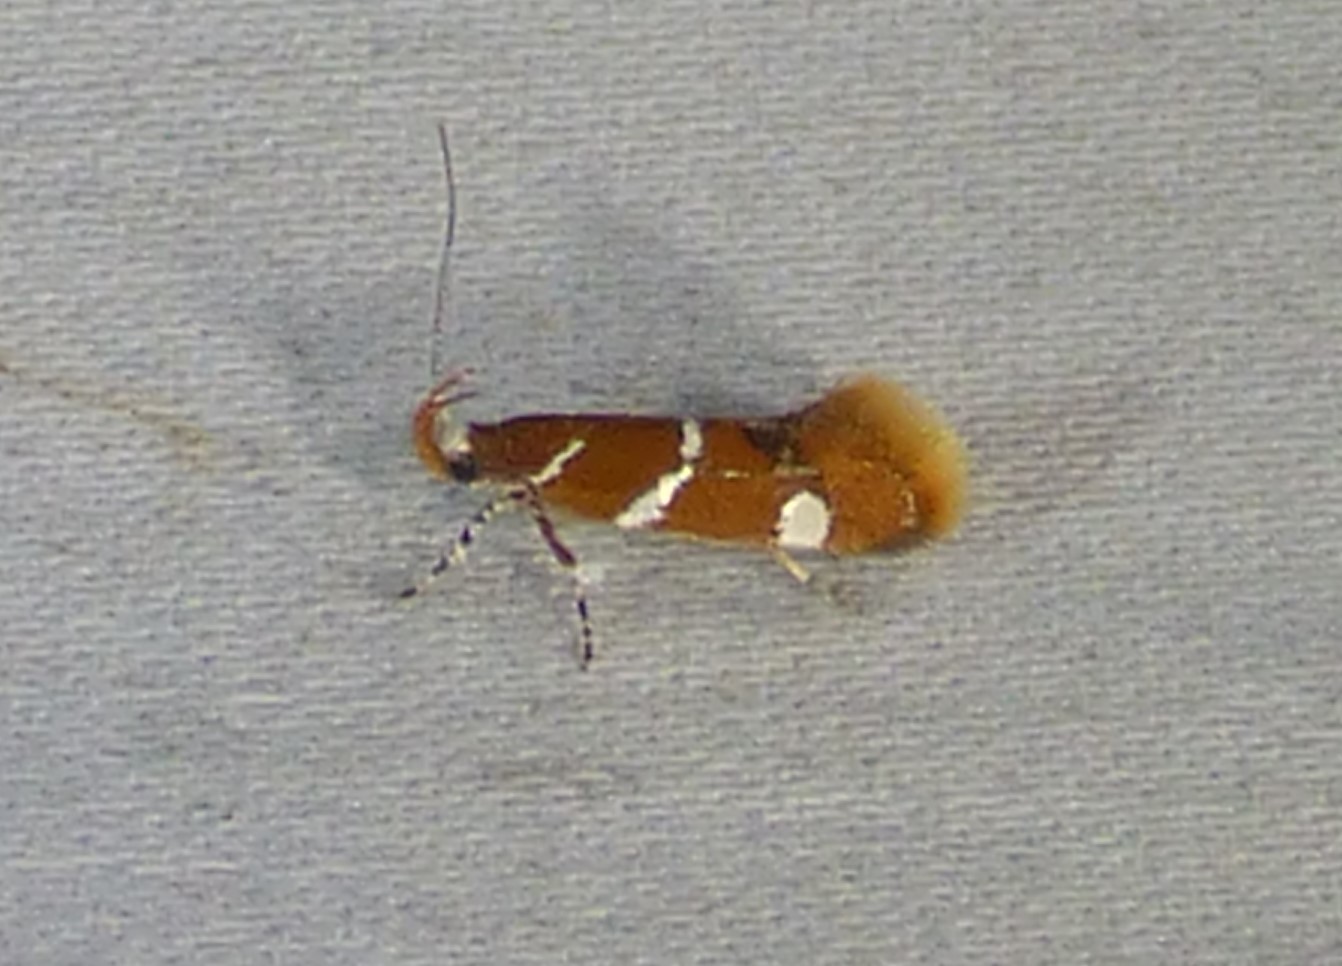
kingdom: Animalia
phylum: Arthropoda
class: Insecta
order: Lepidoptera
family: Oecophoridae
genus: Promalactis
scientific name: Promalactis suzukiella
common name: Moth
